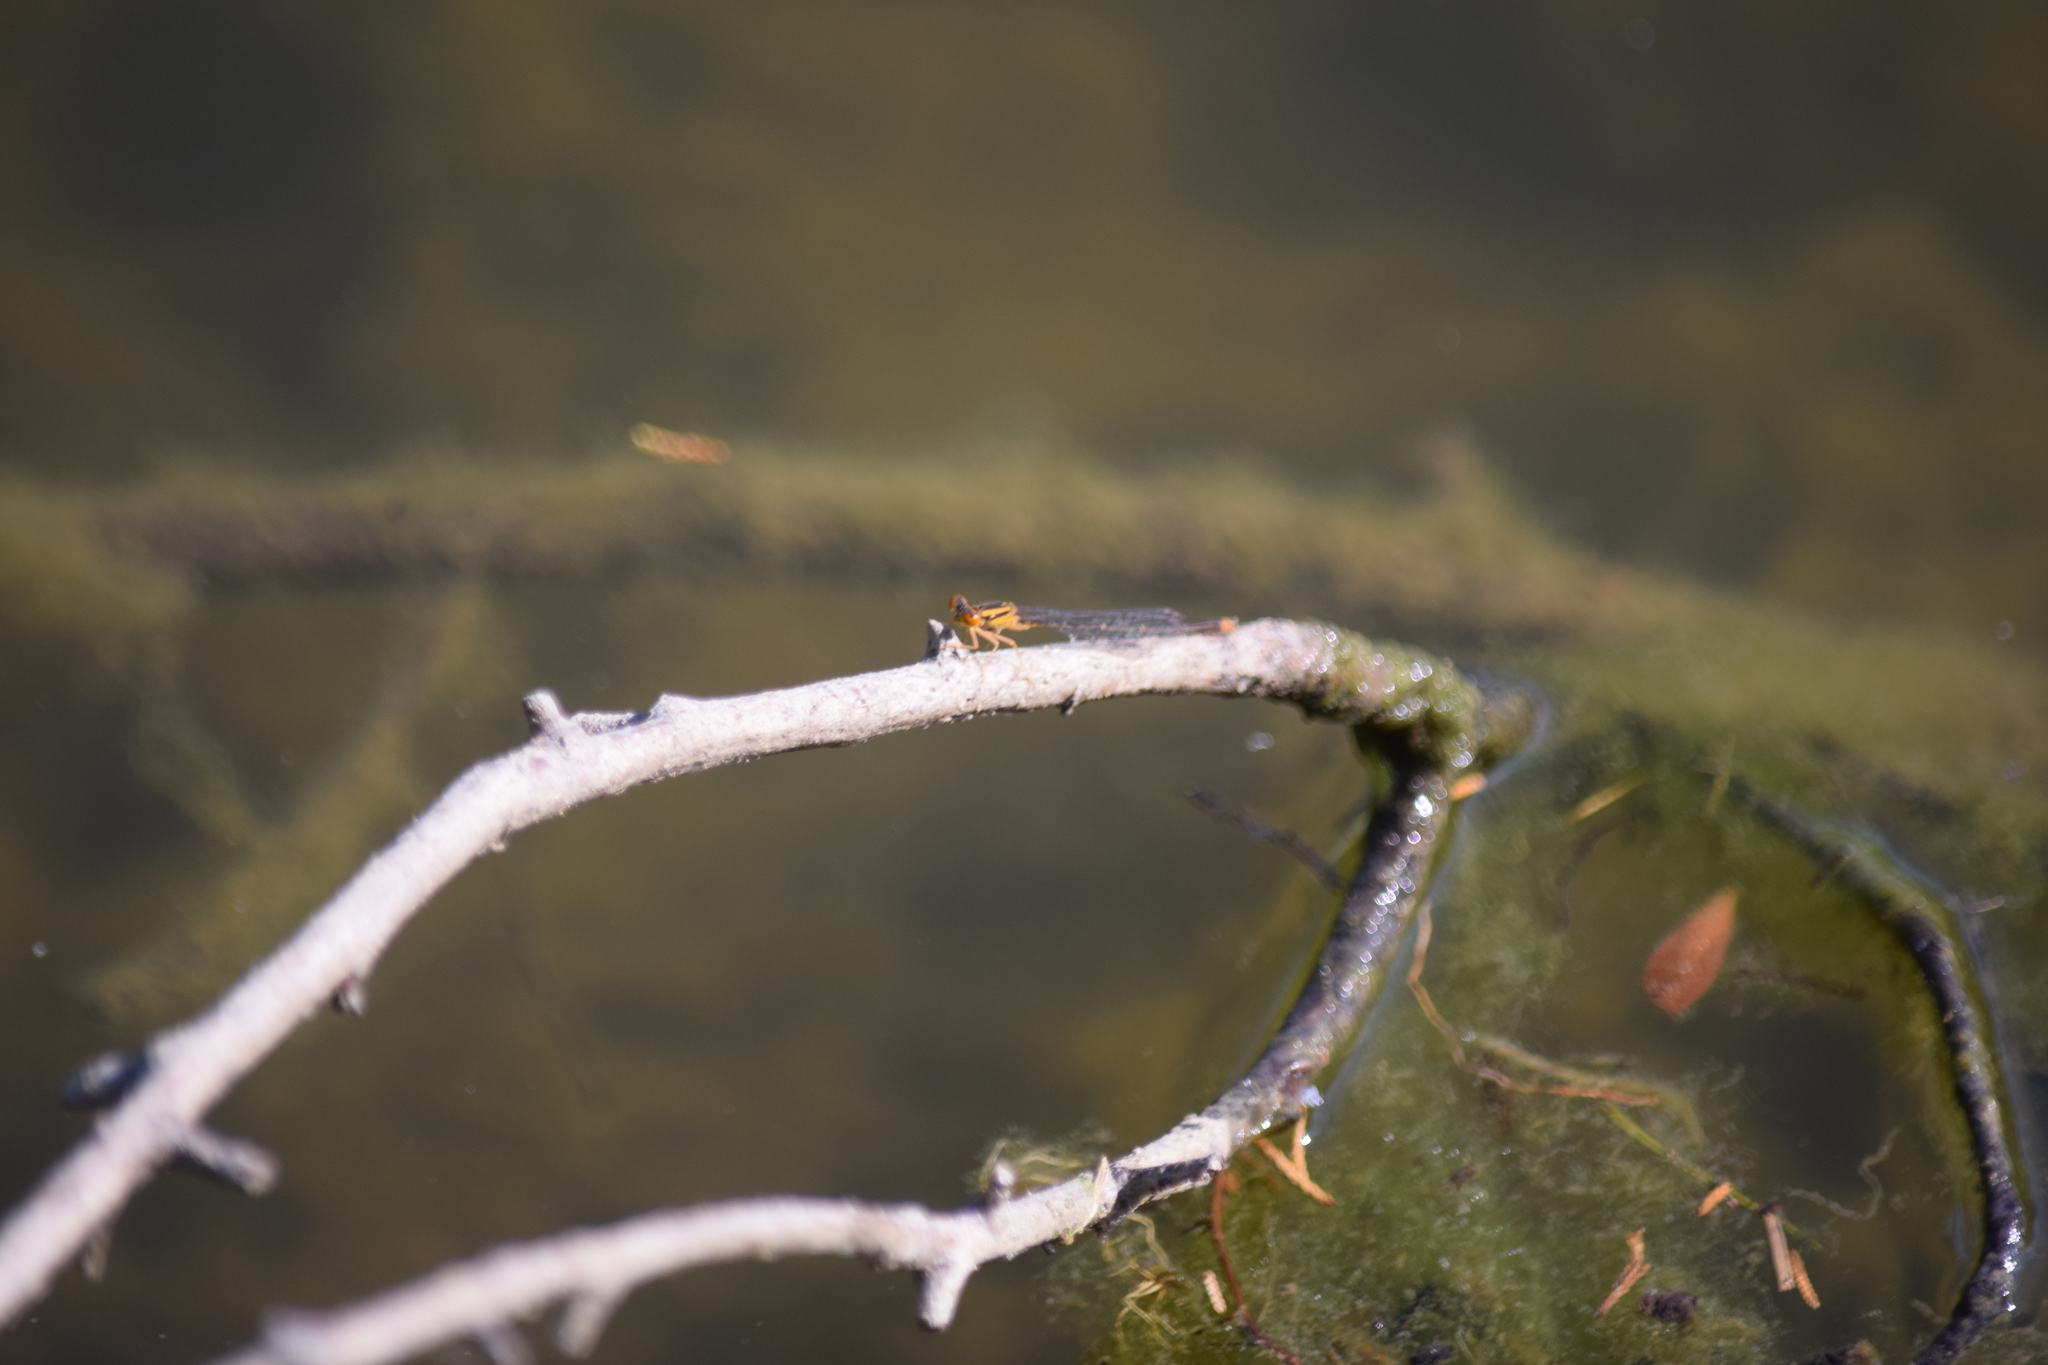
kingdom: Animalia
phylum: Arthropoda
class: Insecta
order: Odonata
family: Coenagrionidae
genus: Enallagma
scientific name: Enallagma signatum
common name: Orange bluet
